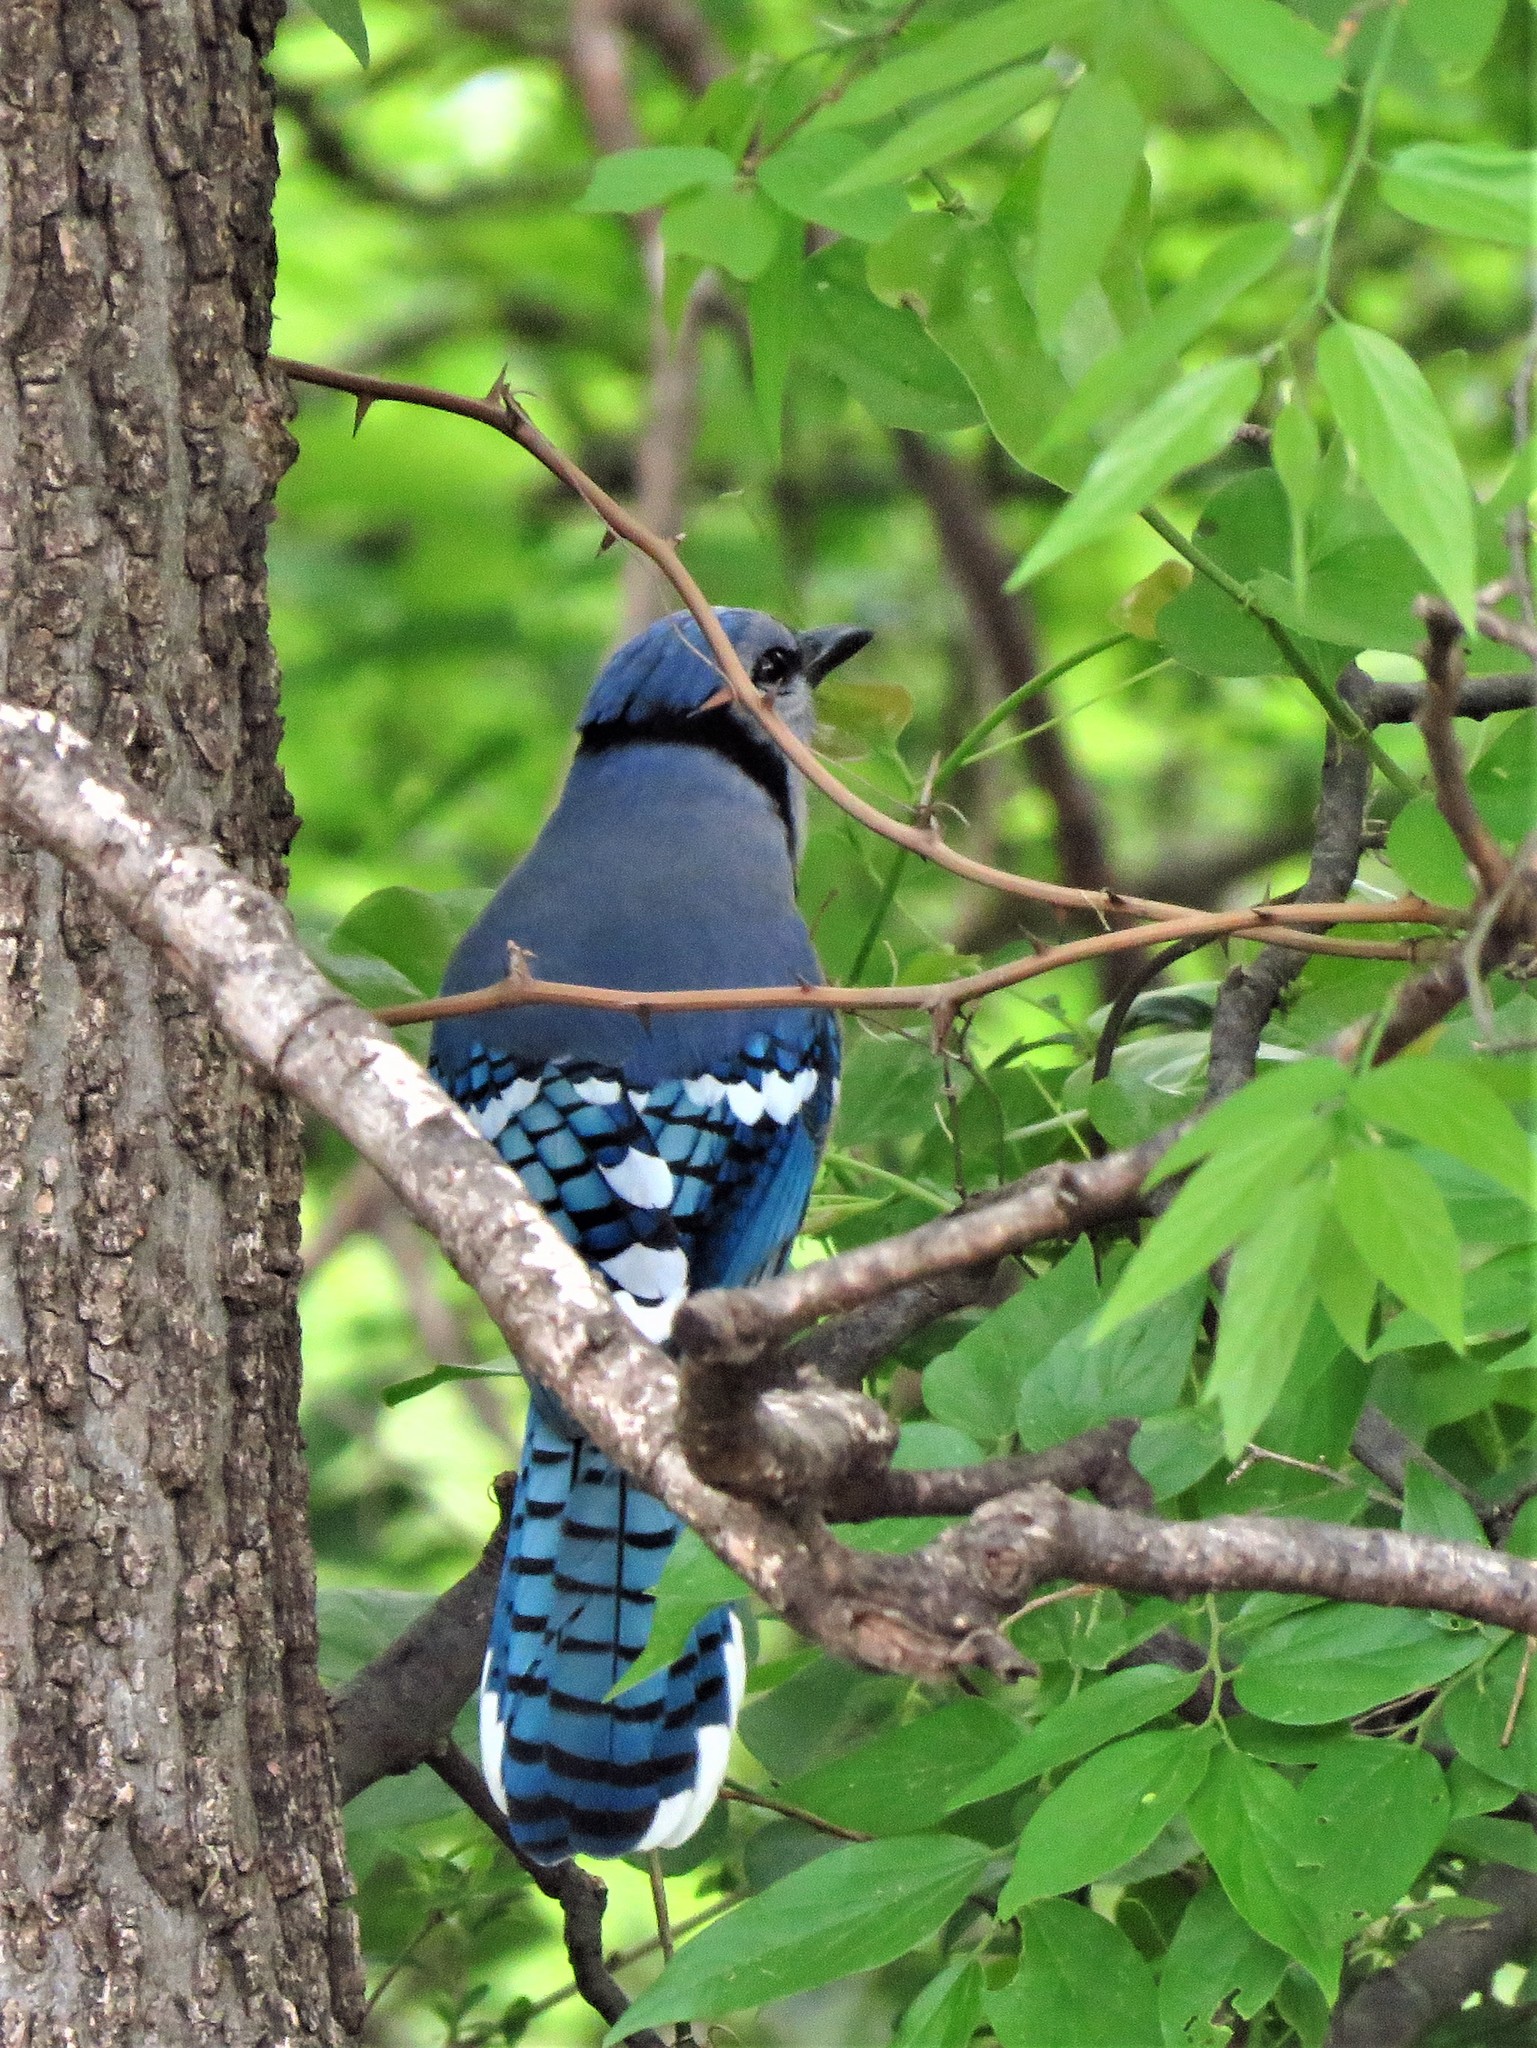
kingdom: Animalia
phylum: Chordata
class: Aves
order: Passeriformes
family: Corvidae
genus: Cyanocitta
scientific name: Cyanocitta cristata
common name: Blue jay
